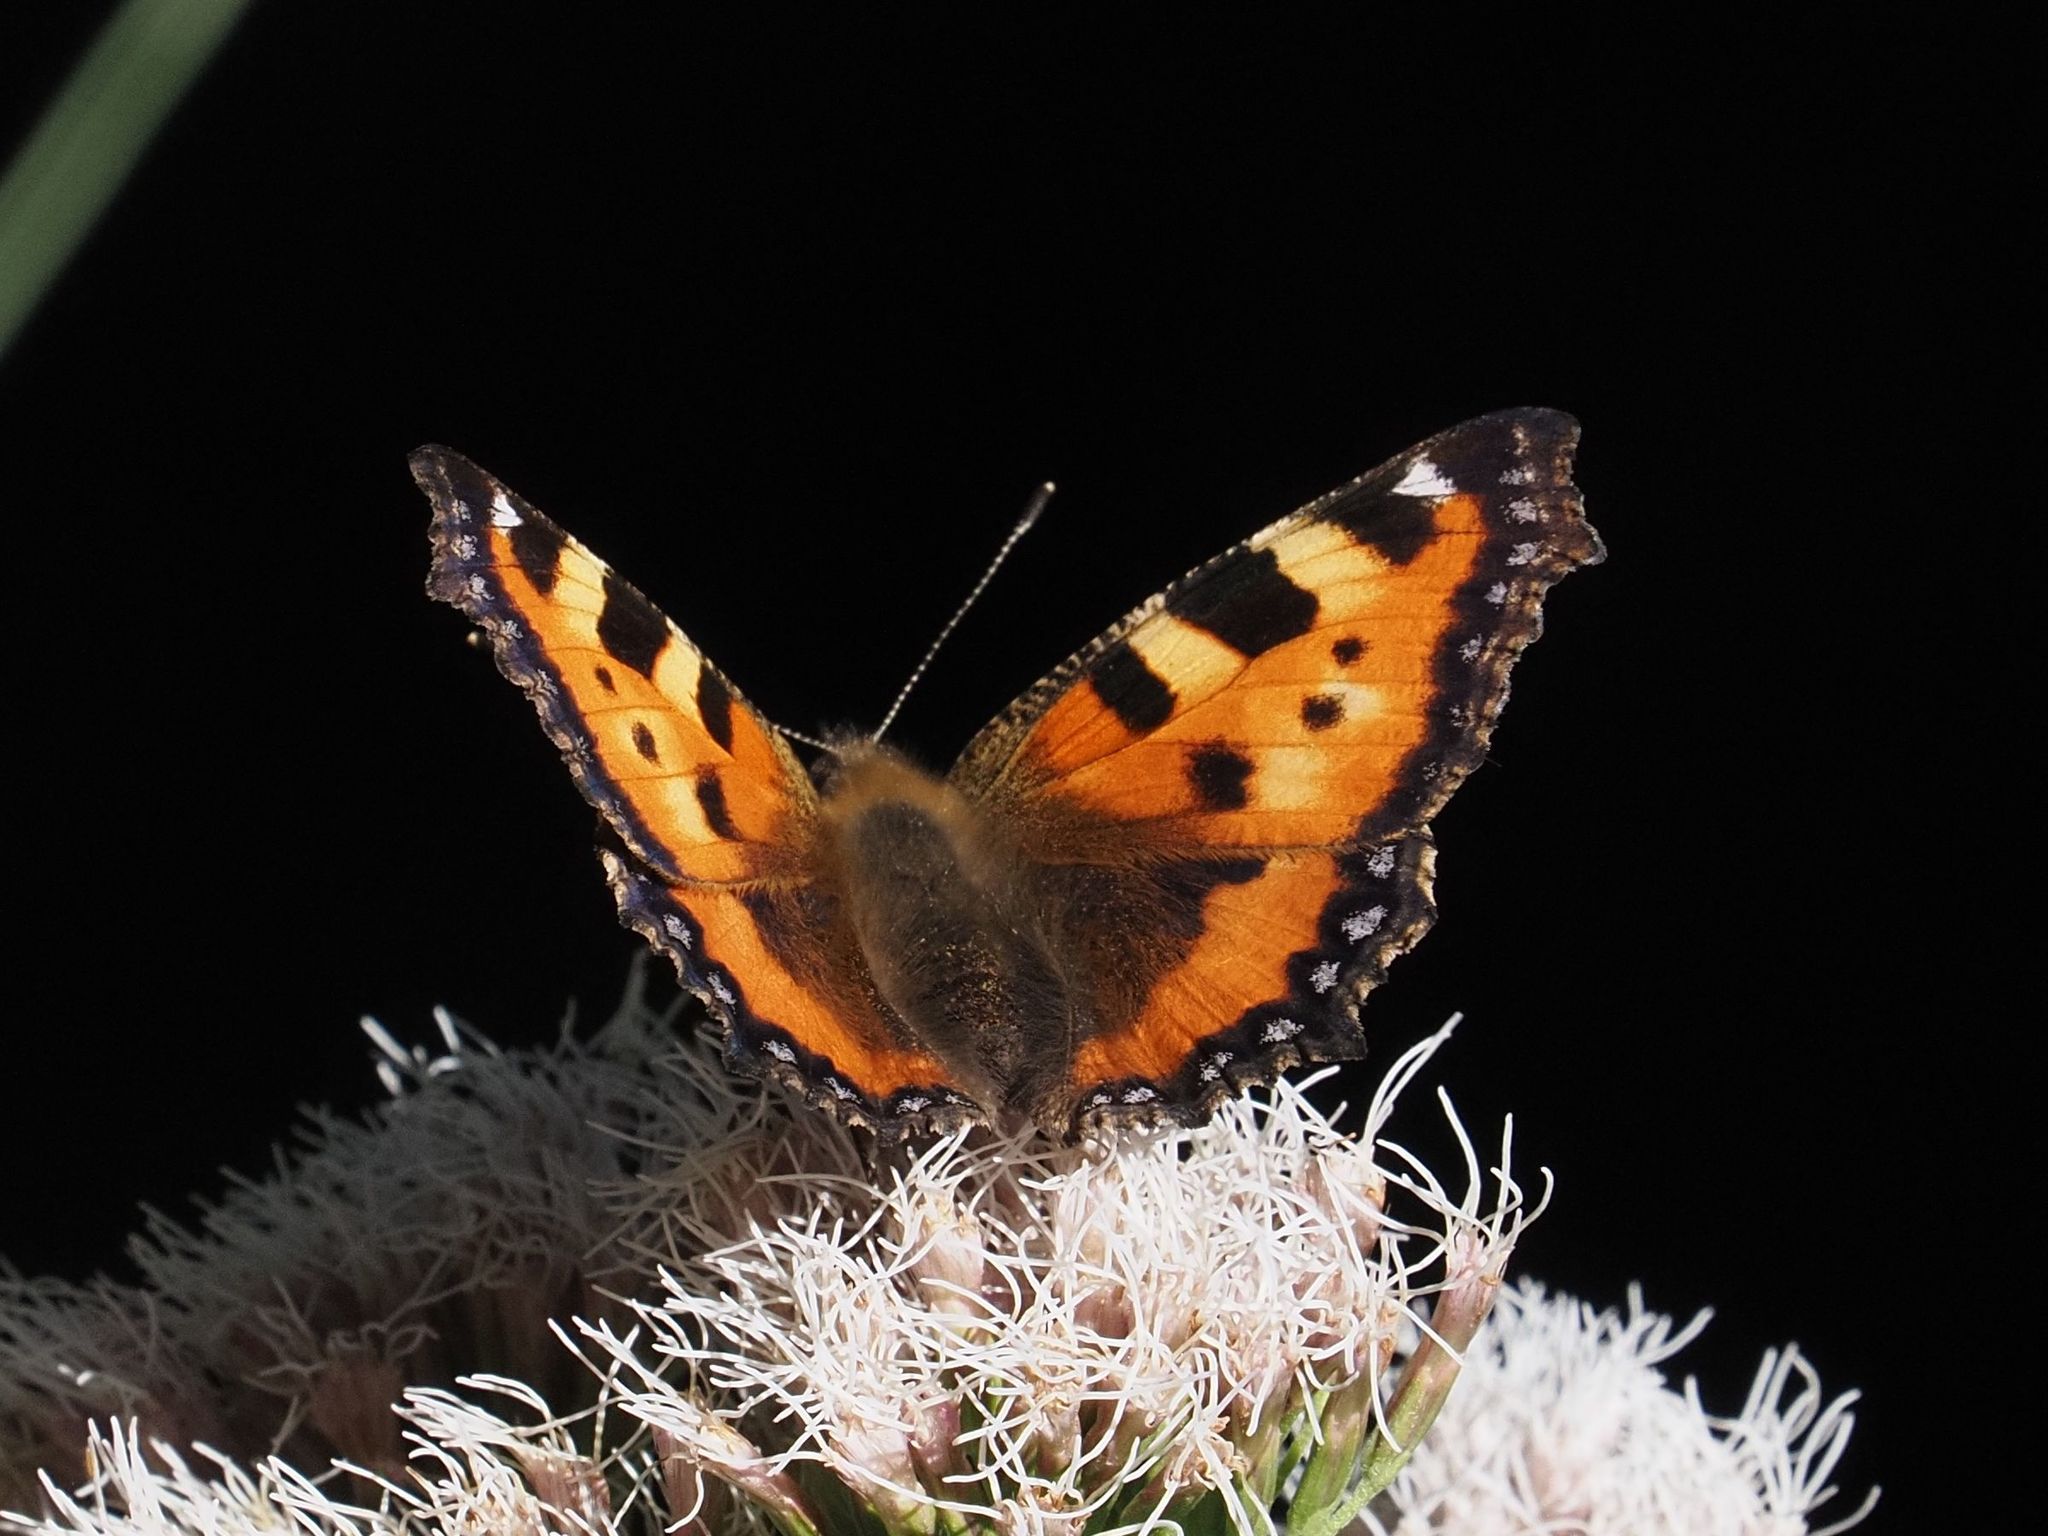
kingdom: Animalia
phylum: Arthropoda
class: Insecta
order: Lepidoptera
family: Nymphalidae
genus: Aglais
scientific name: Aglais urticae
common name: Small tortoiseshell
